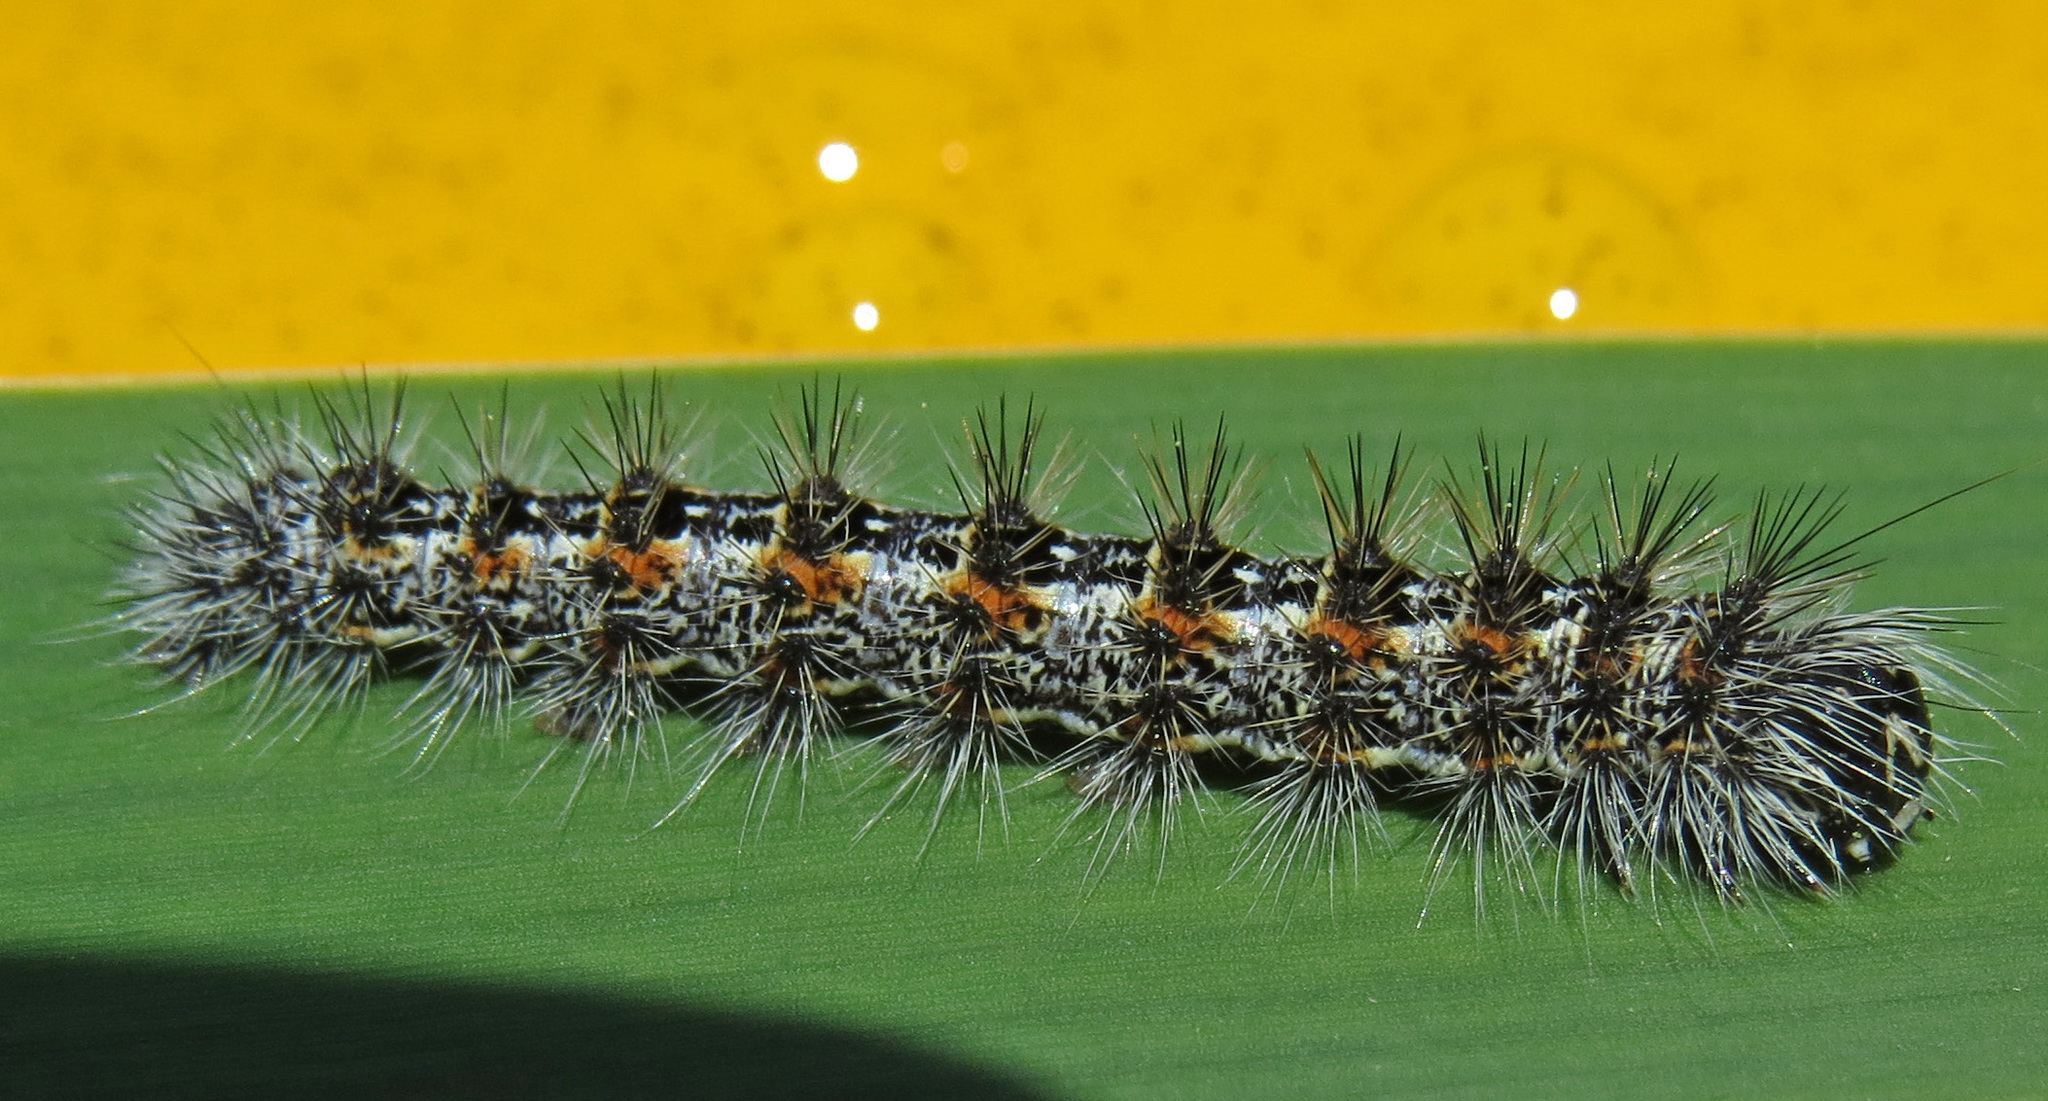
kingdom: Animalia
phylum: Arthropoda
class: Insecta
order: Lepidoptera
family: Noctuidae
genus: Acronicta
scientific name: Acronicta insularis
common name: Henry's marsh moth
